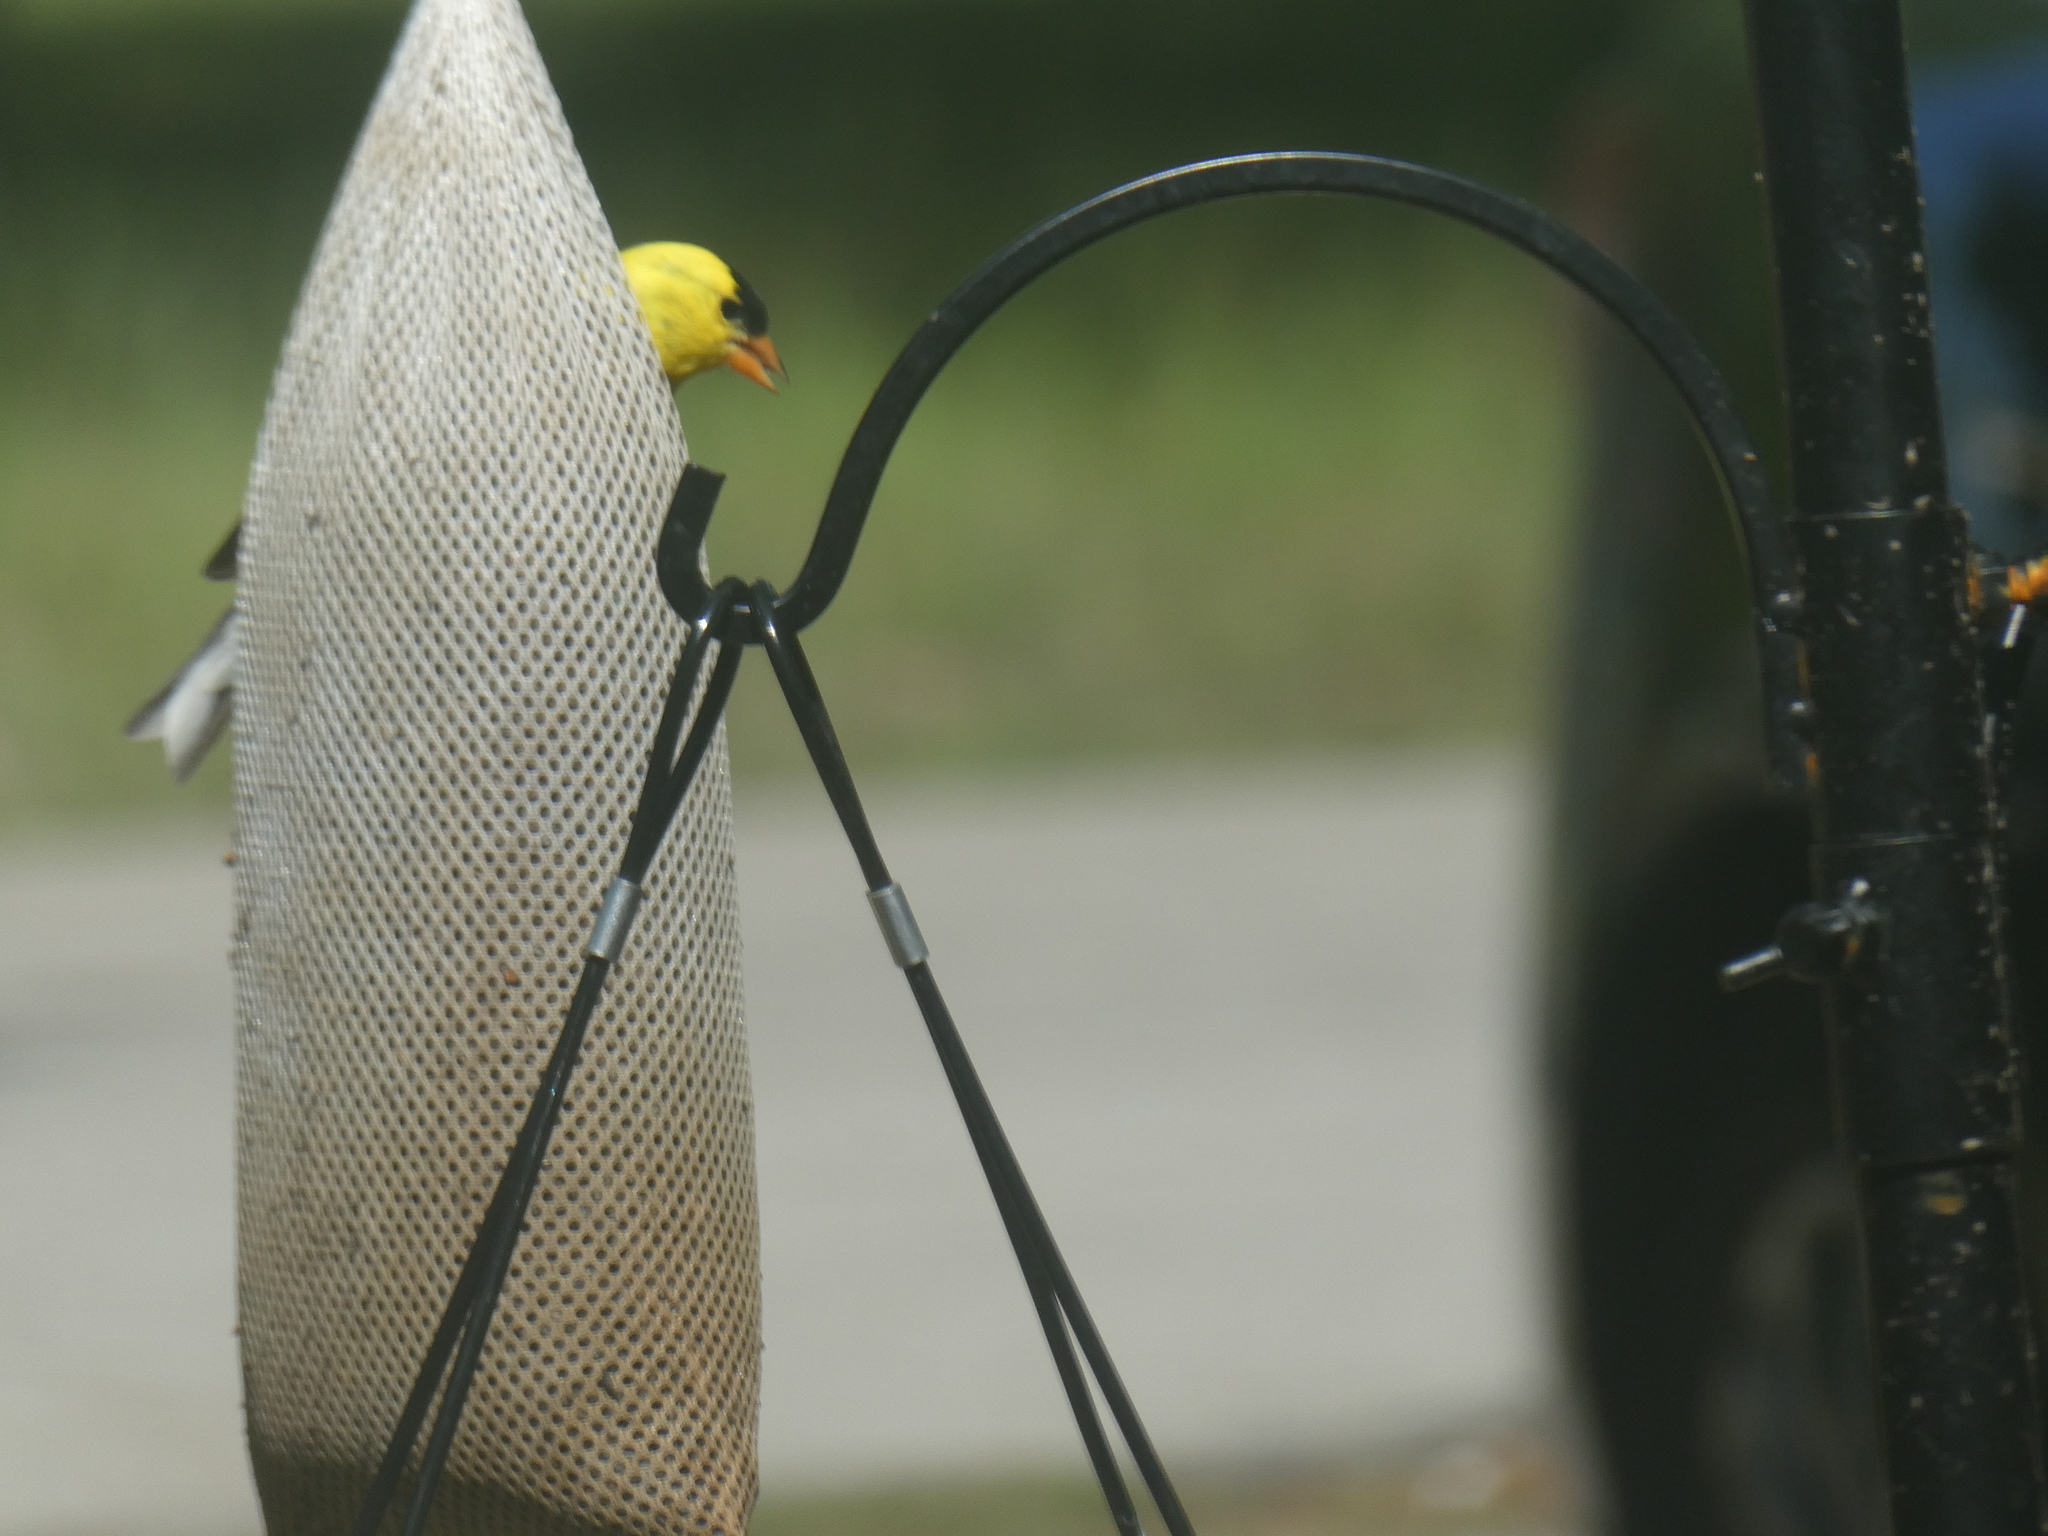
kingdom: Animalia
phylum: Chordata
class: Aves
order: Passeriformes
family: Fringillidae
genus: Spinus
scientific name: Spinus tristis
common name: American goldfinch
